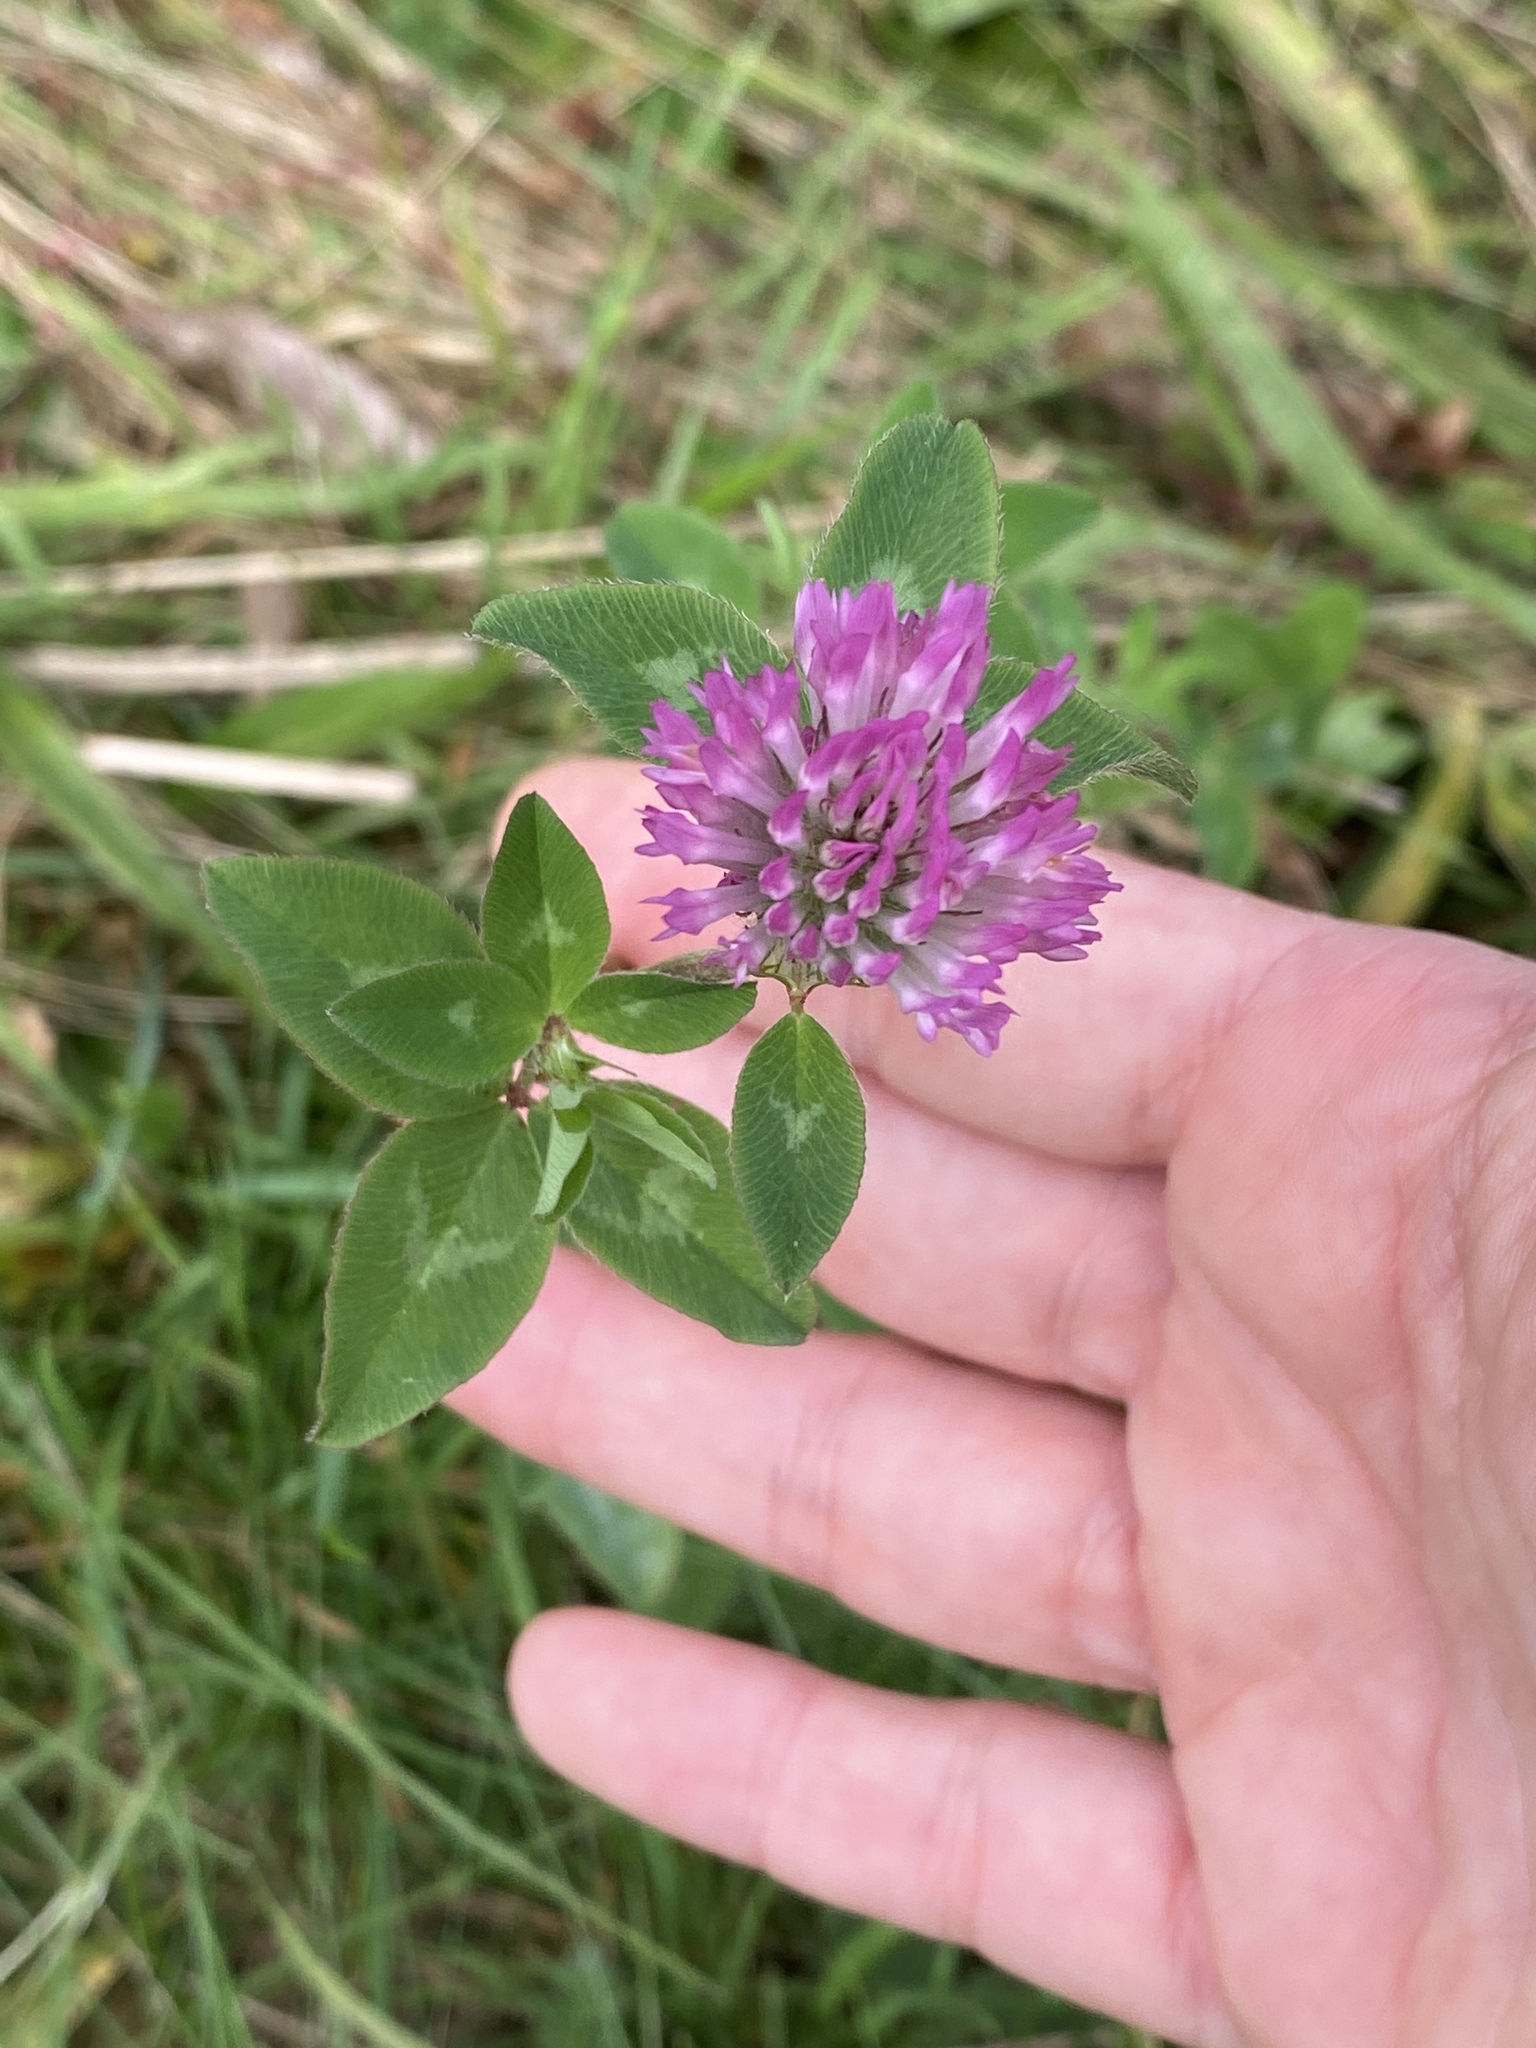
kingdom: Plantae
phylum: Tracheophyta
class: Magnoliopsida
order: Fabales
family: Fabaceae
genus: Trifolium
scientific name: Trifolium pratense
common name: Red clover
